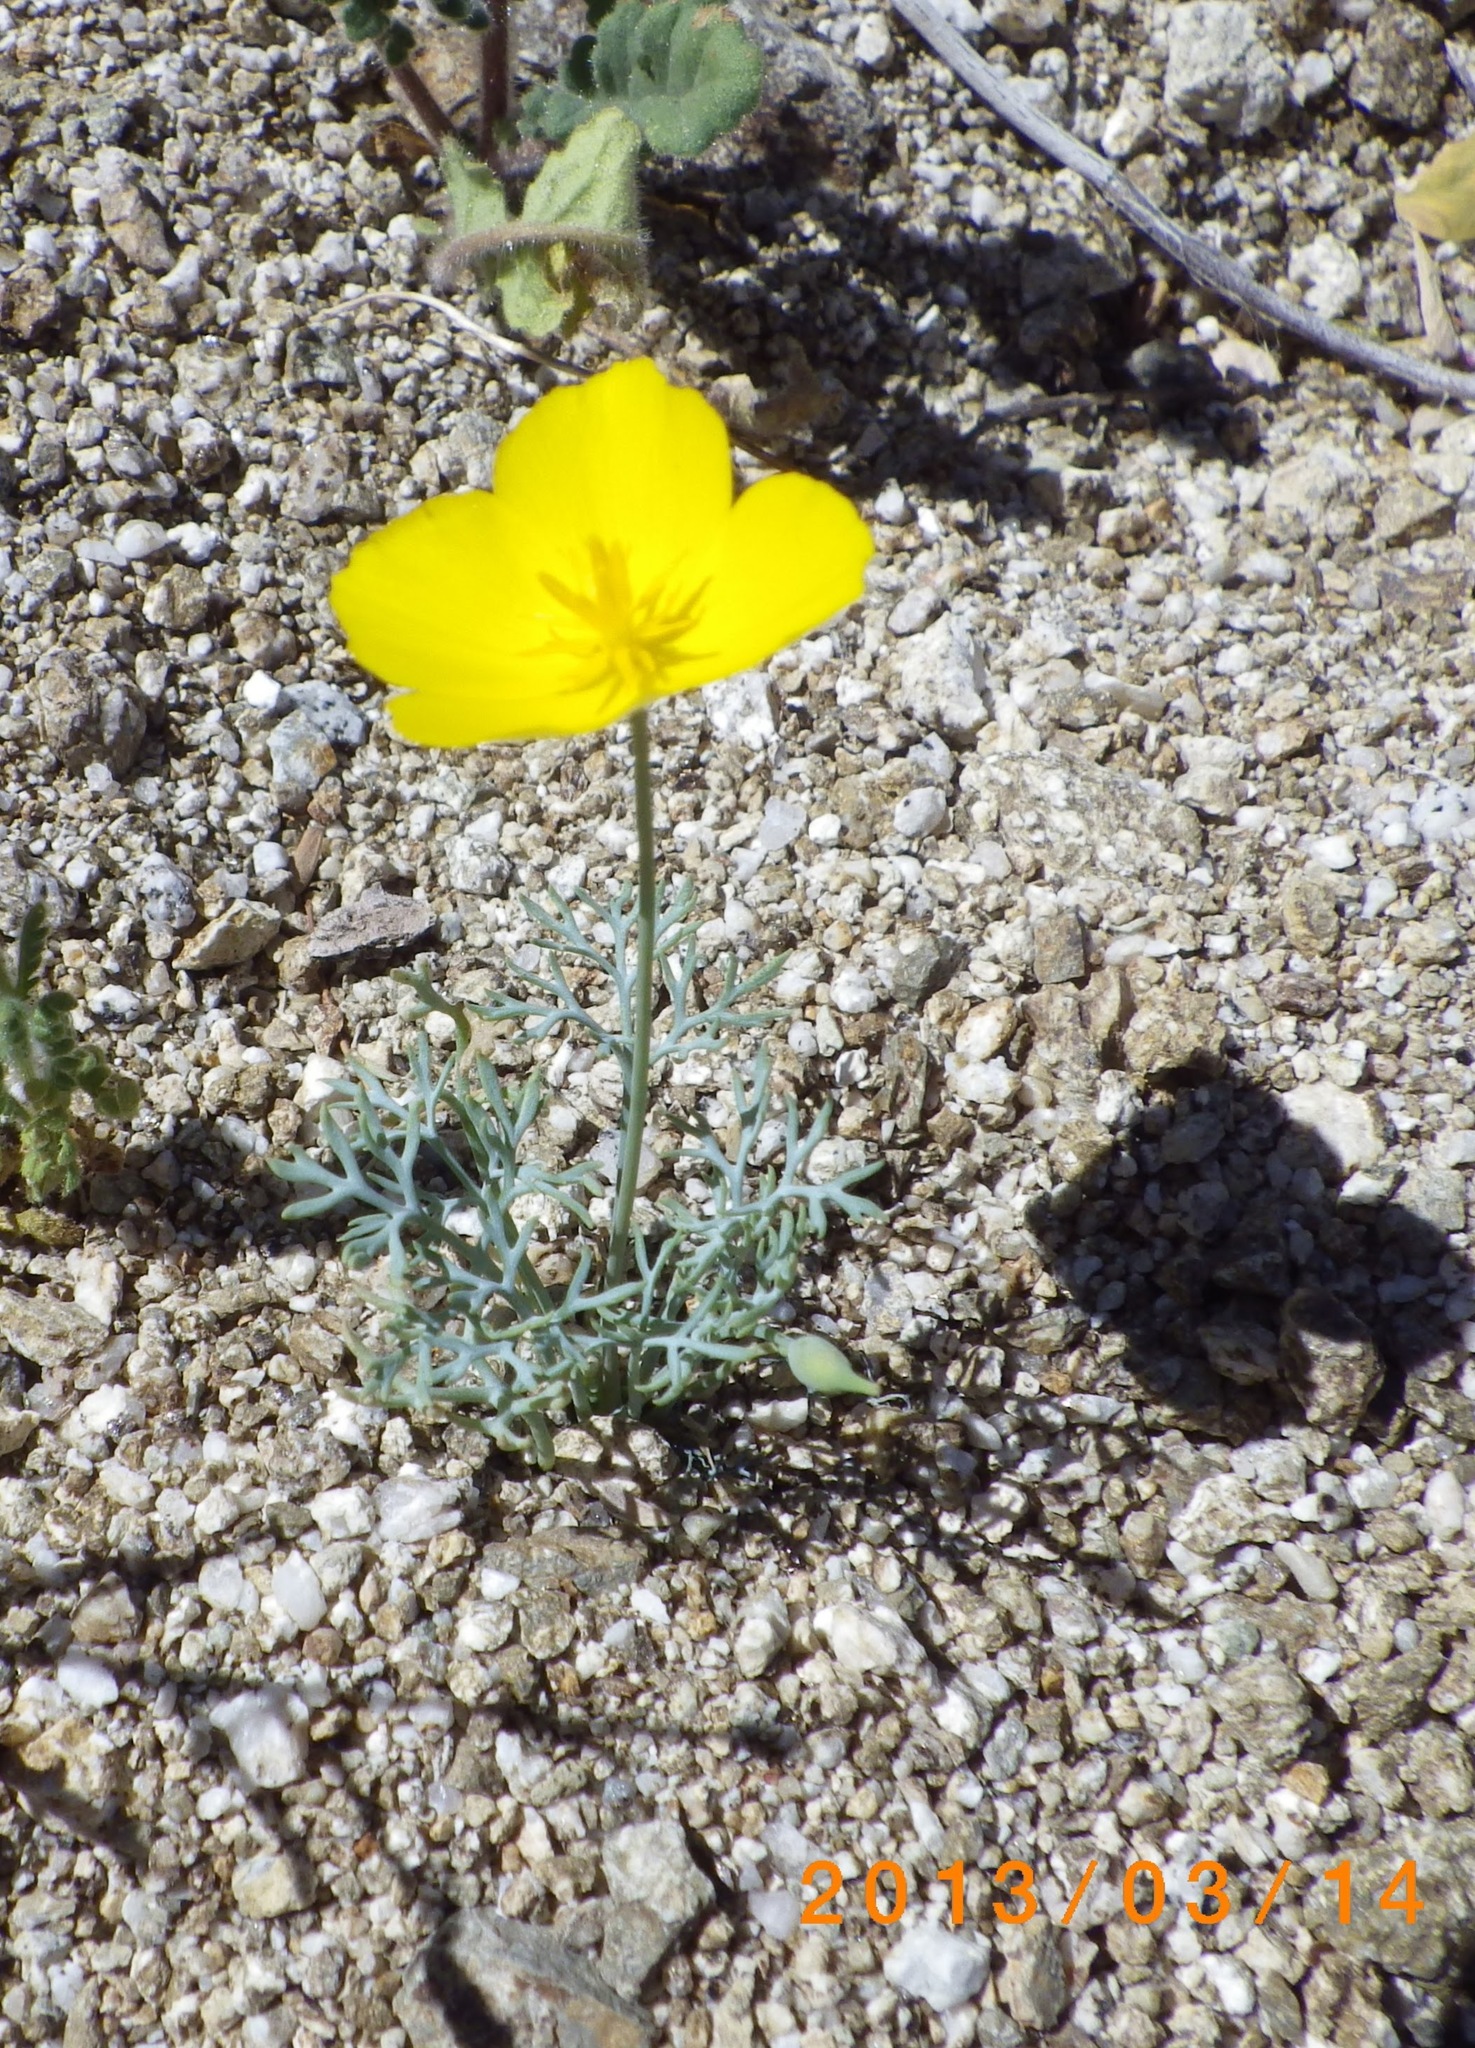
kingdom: Plantae
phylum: Tracheophyta
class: Magnoliopsida
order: Ranunculales
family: Papaveraceae
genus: Eschscholzia
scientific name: Eschscholzia parishii
